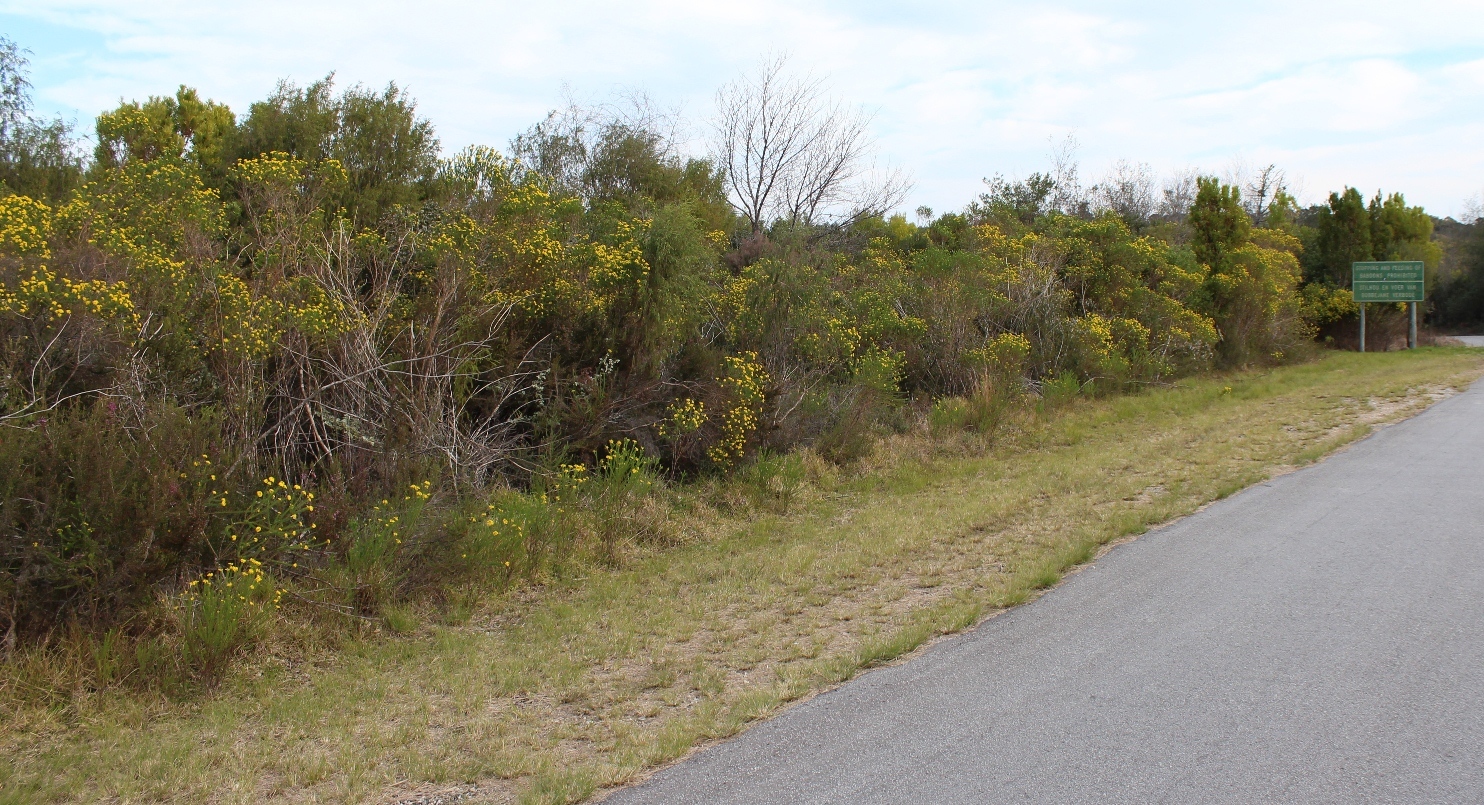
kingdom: Plantae
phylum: Tracheophyta
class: Magnoliopsida
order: Asterales
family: Asteraceae
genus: Euryops
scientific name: Euryops virgineus
